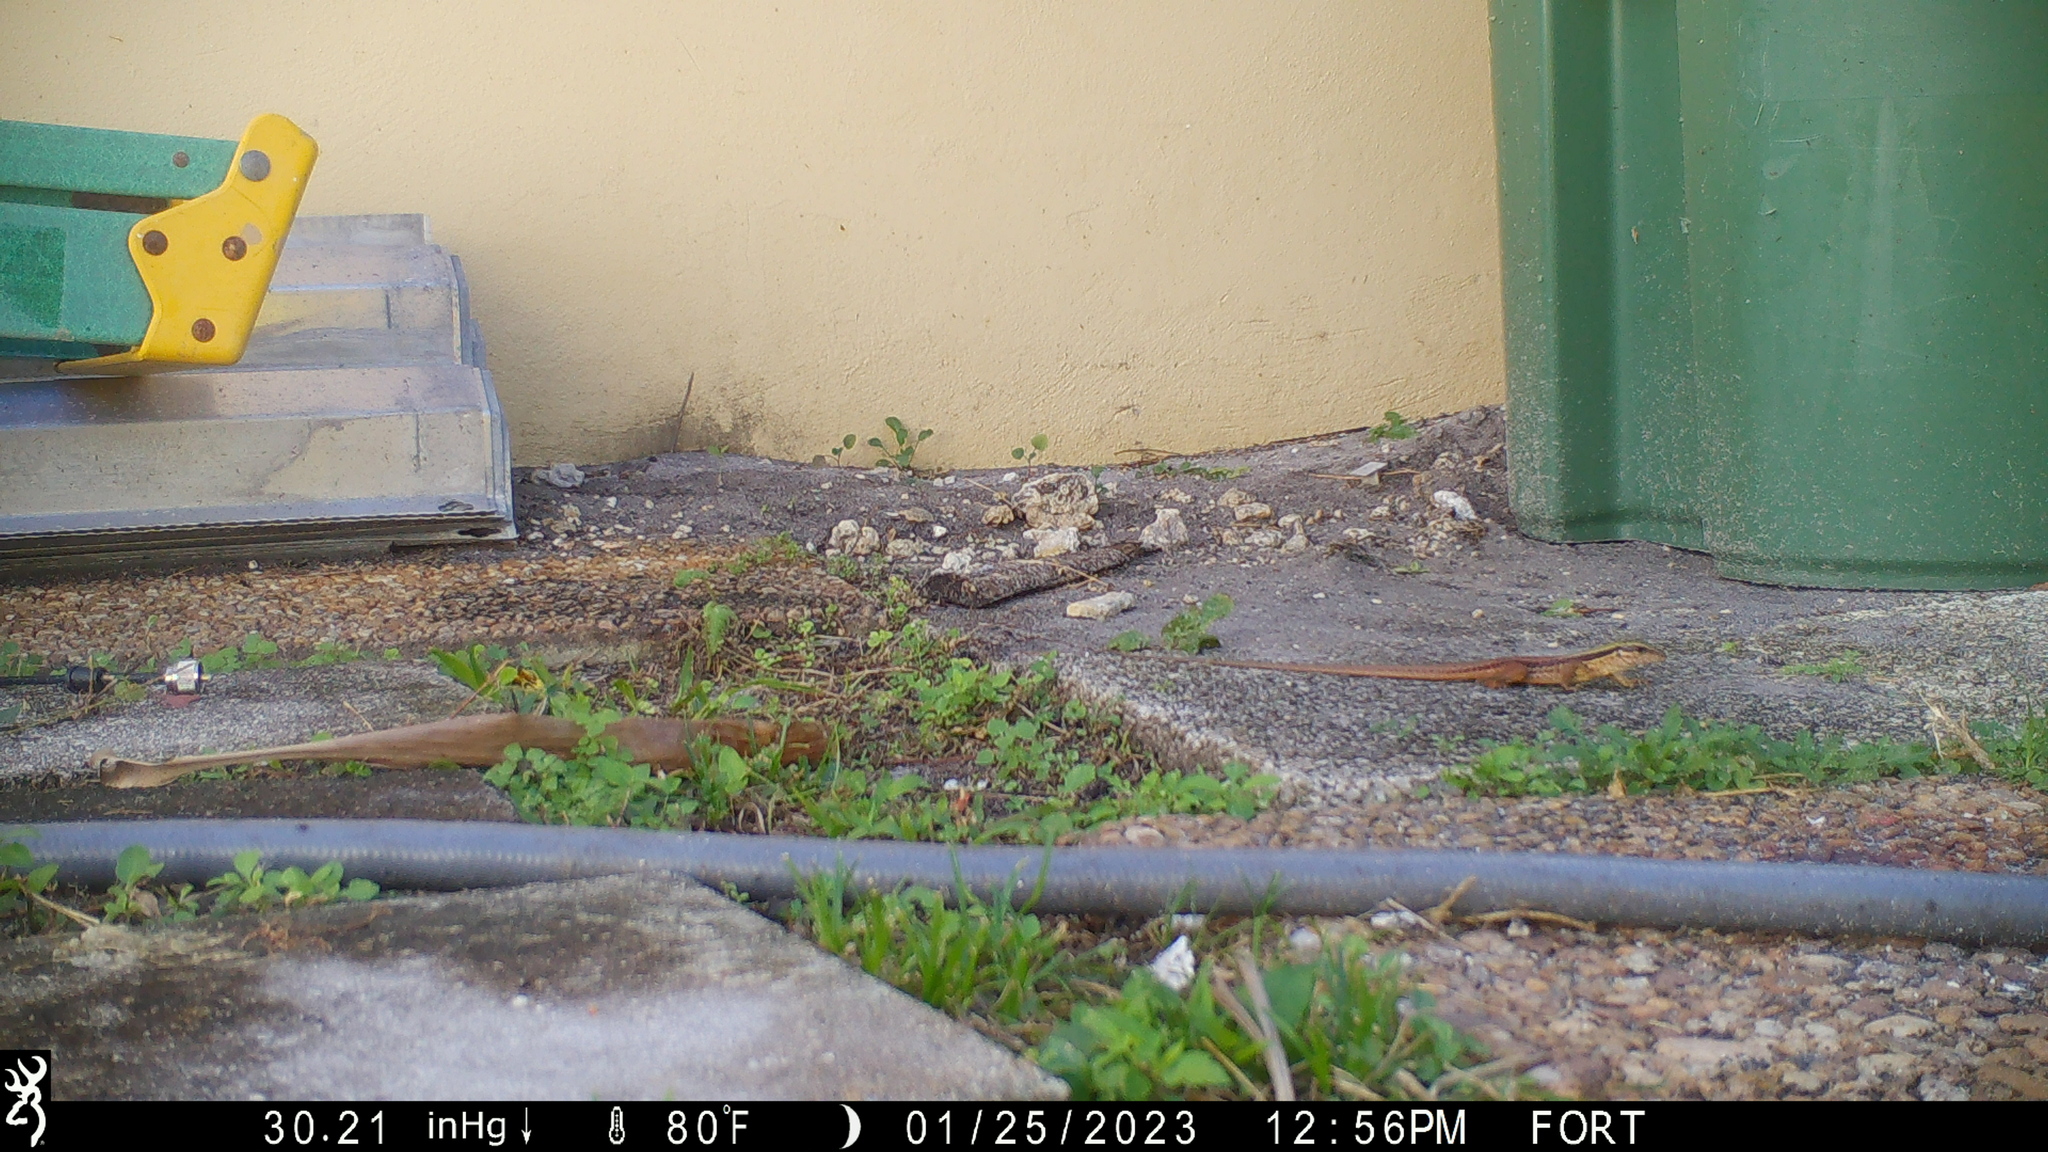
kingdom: Animalia
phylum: Chordata
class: Squamata
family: Teiidae
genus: Ameiva
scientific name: Ameiva ameiva
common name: Giant ameiva
